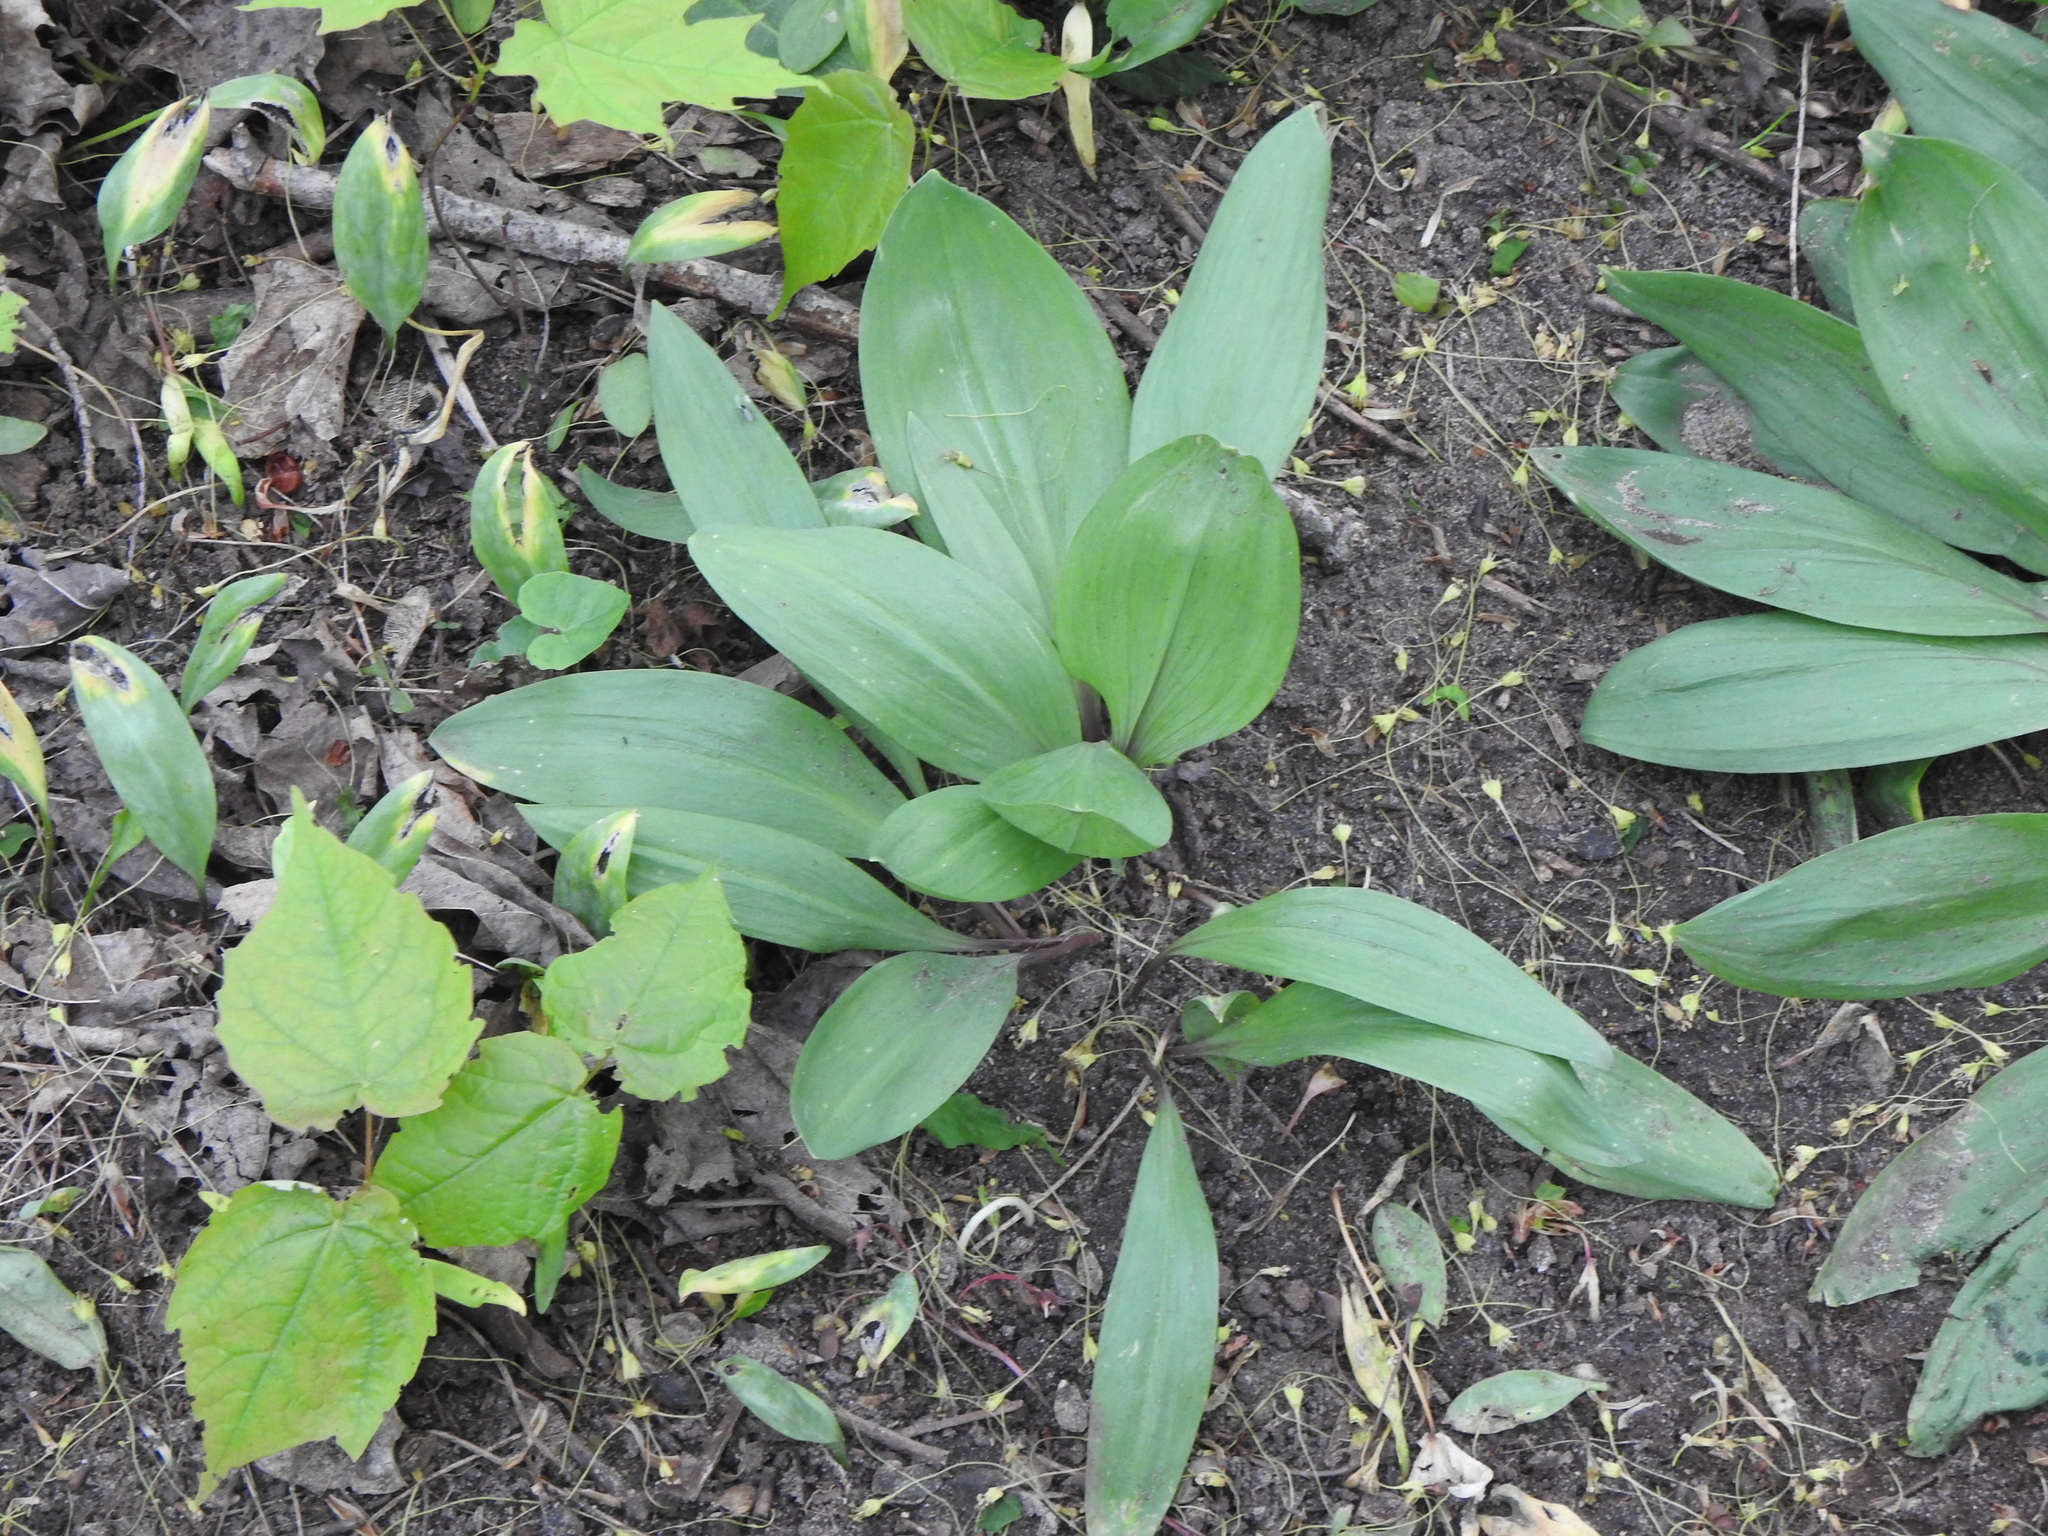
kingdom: Plantae
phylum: Tracheophyta
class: Liliopsida
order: Asparagales
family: Amaryllidaceae
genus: Allium
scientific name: Allium tricoccum
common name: Ramp
